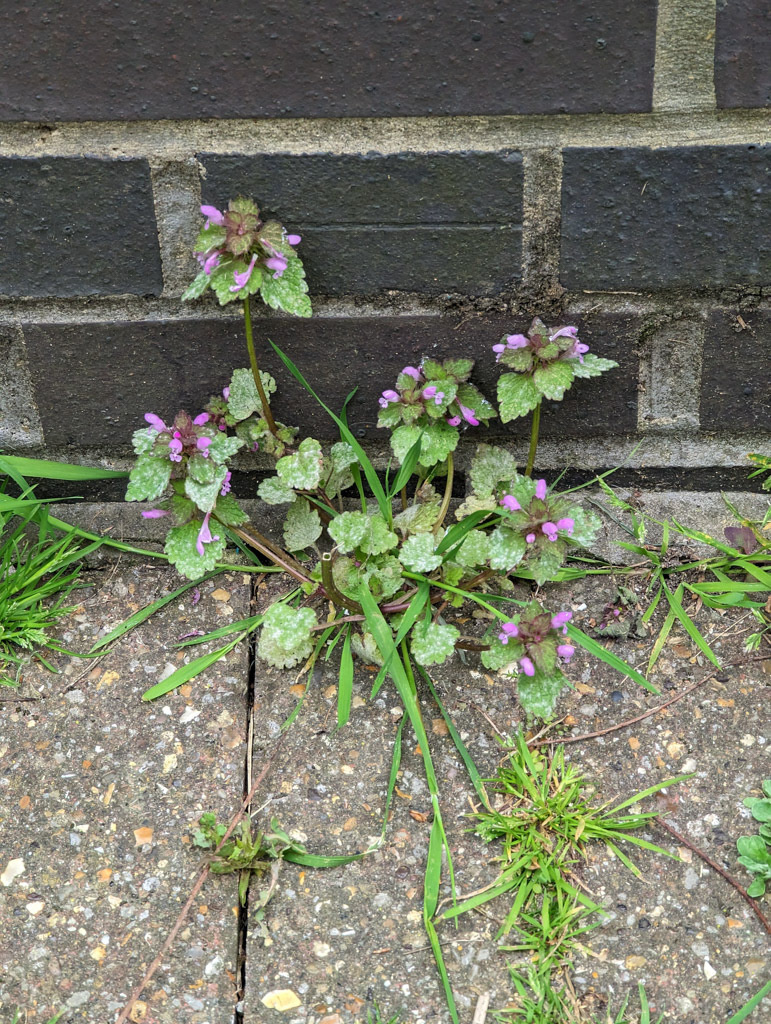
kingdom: Plantae
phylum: Tracheophyta
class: Magnoliopsida
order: Lamiales
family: Lamiaceae
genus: Lamium
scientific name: Lamium purpureum
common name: Red dead-nettle
